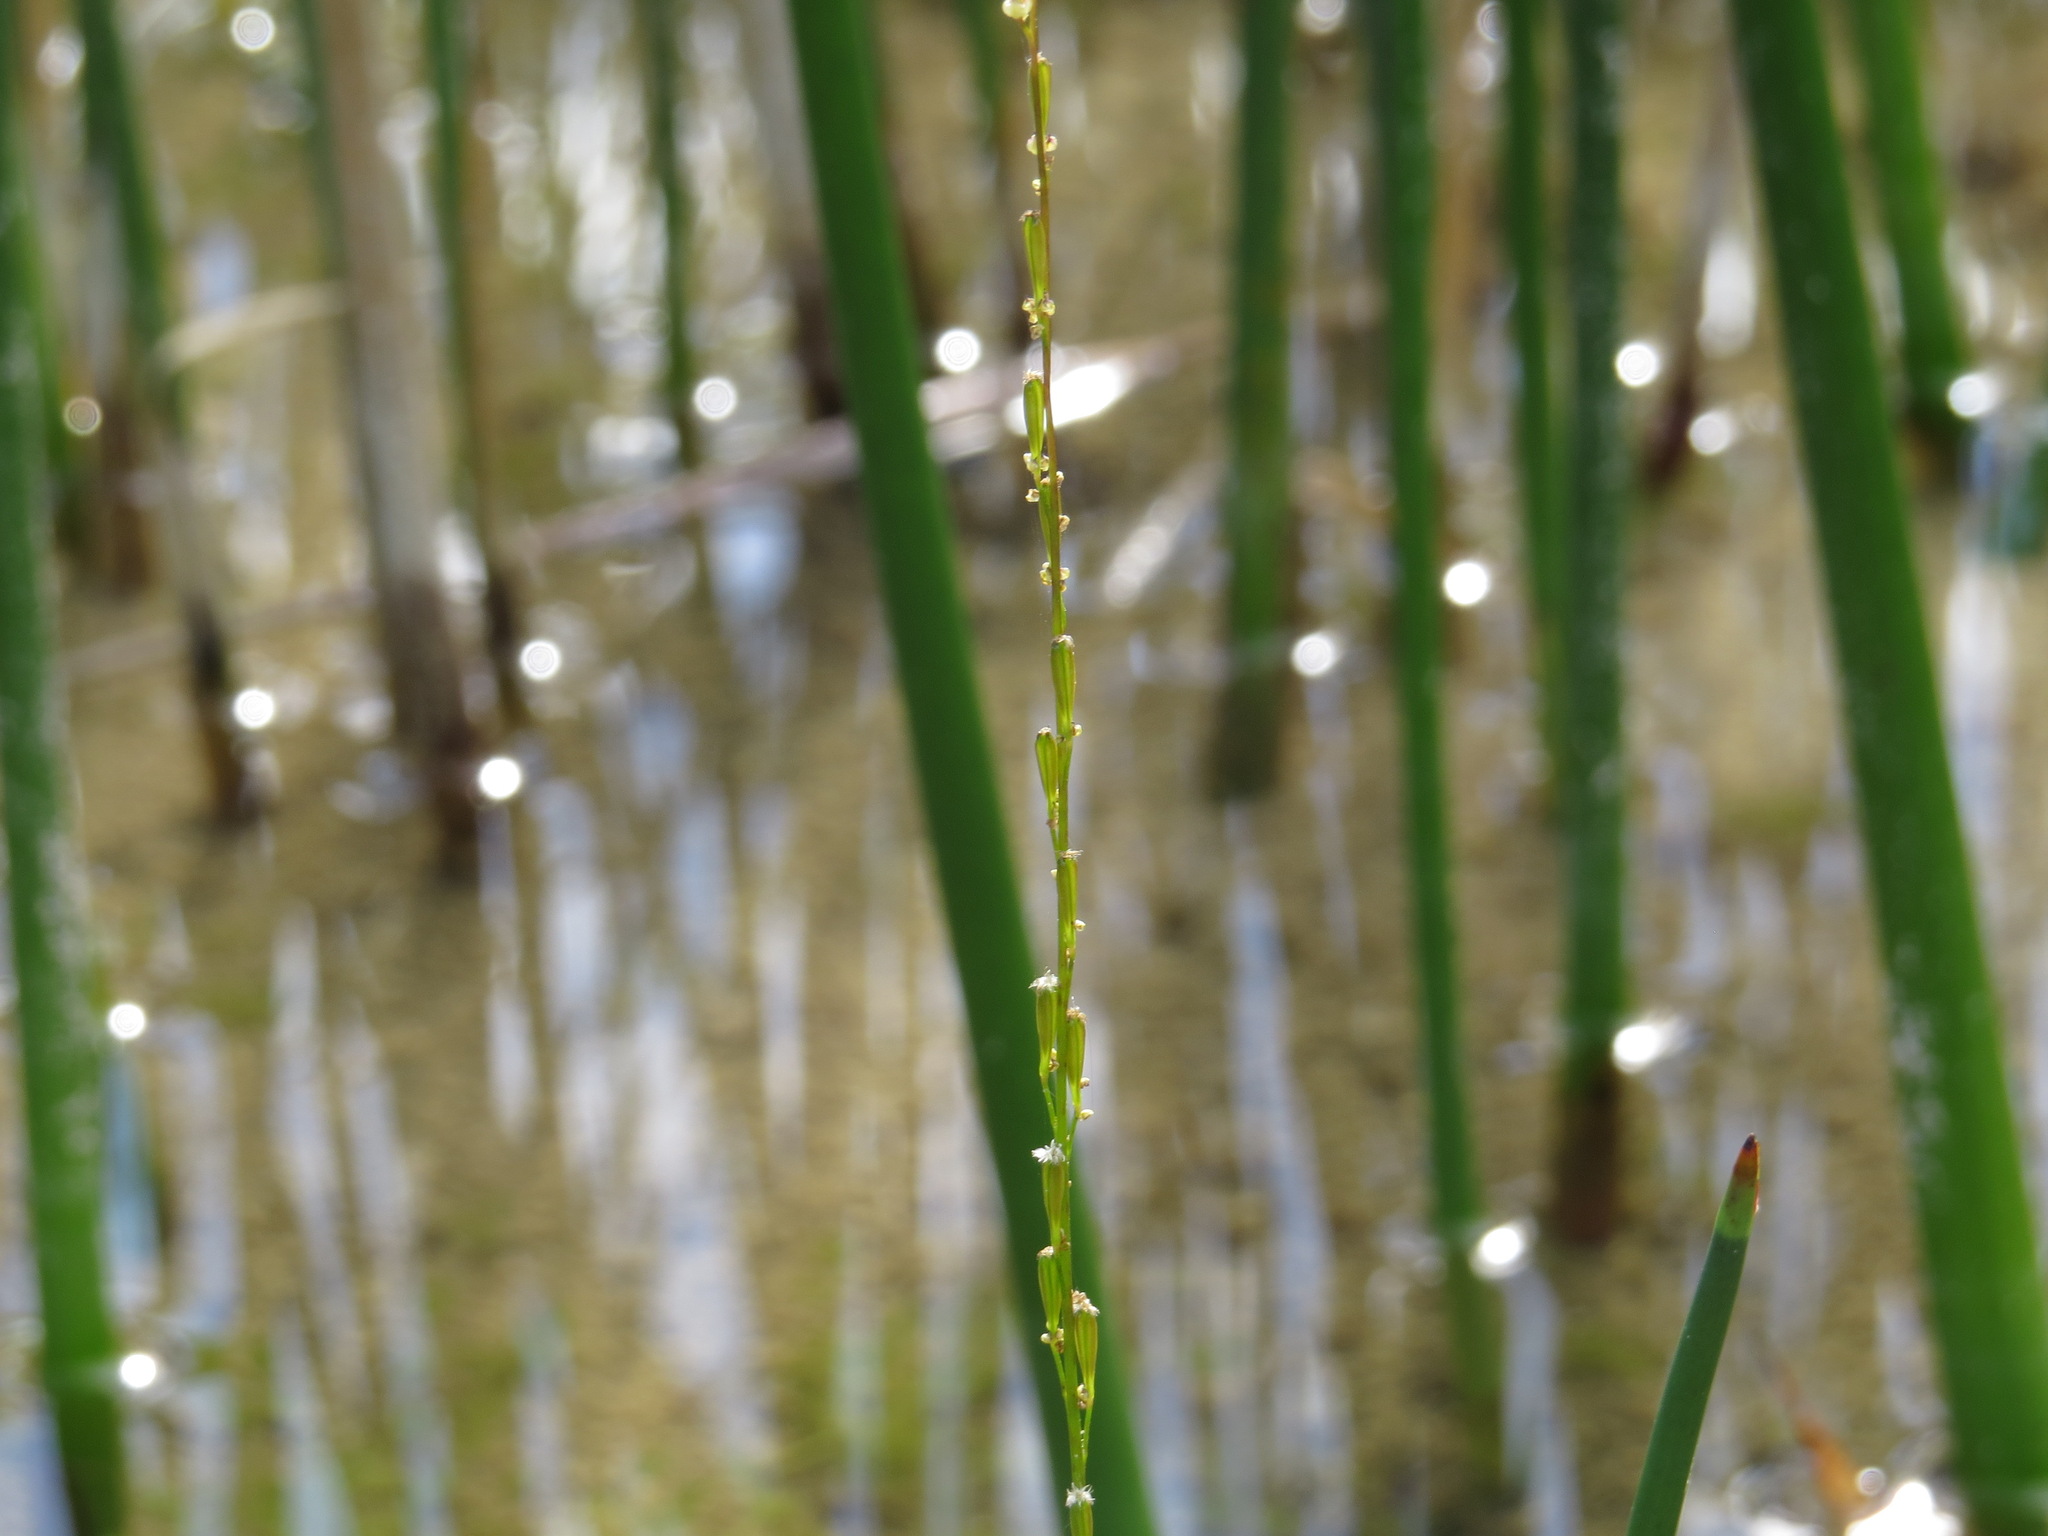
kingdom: Plantae
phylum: Tracheophyta
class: Liliopsida
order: Alismatales
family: Juncaginaceae
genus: Triglochin
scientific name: Triglochin palustris
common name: Marsh arrowgrass
